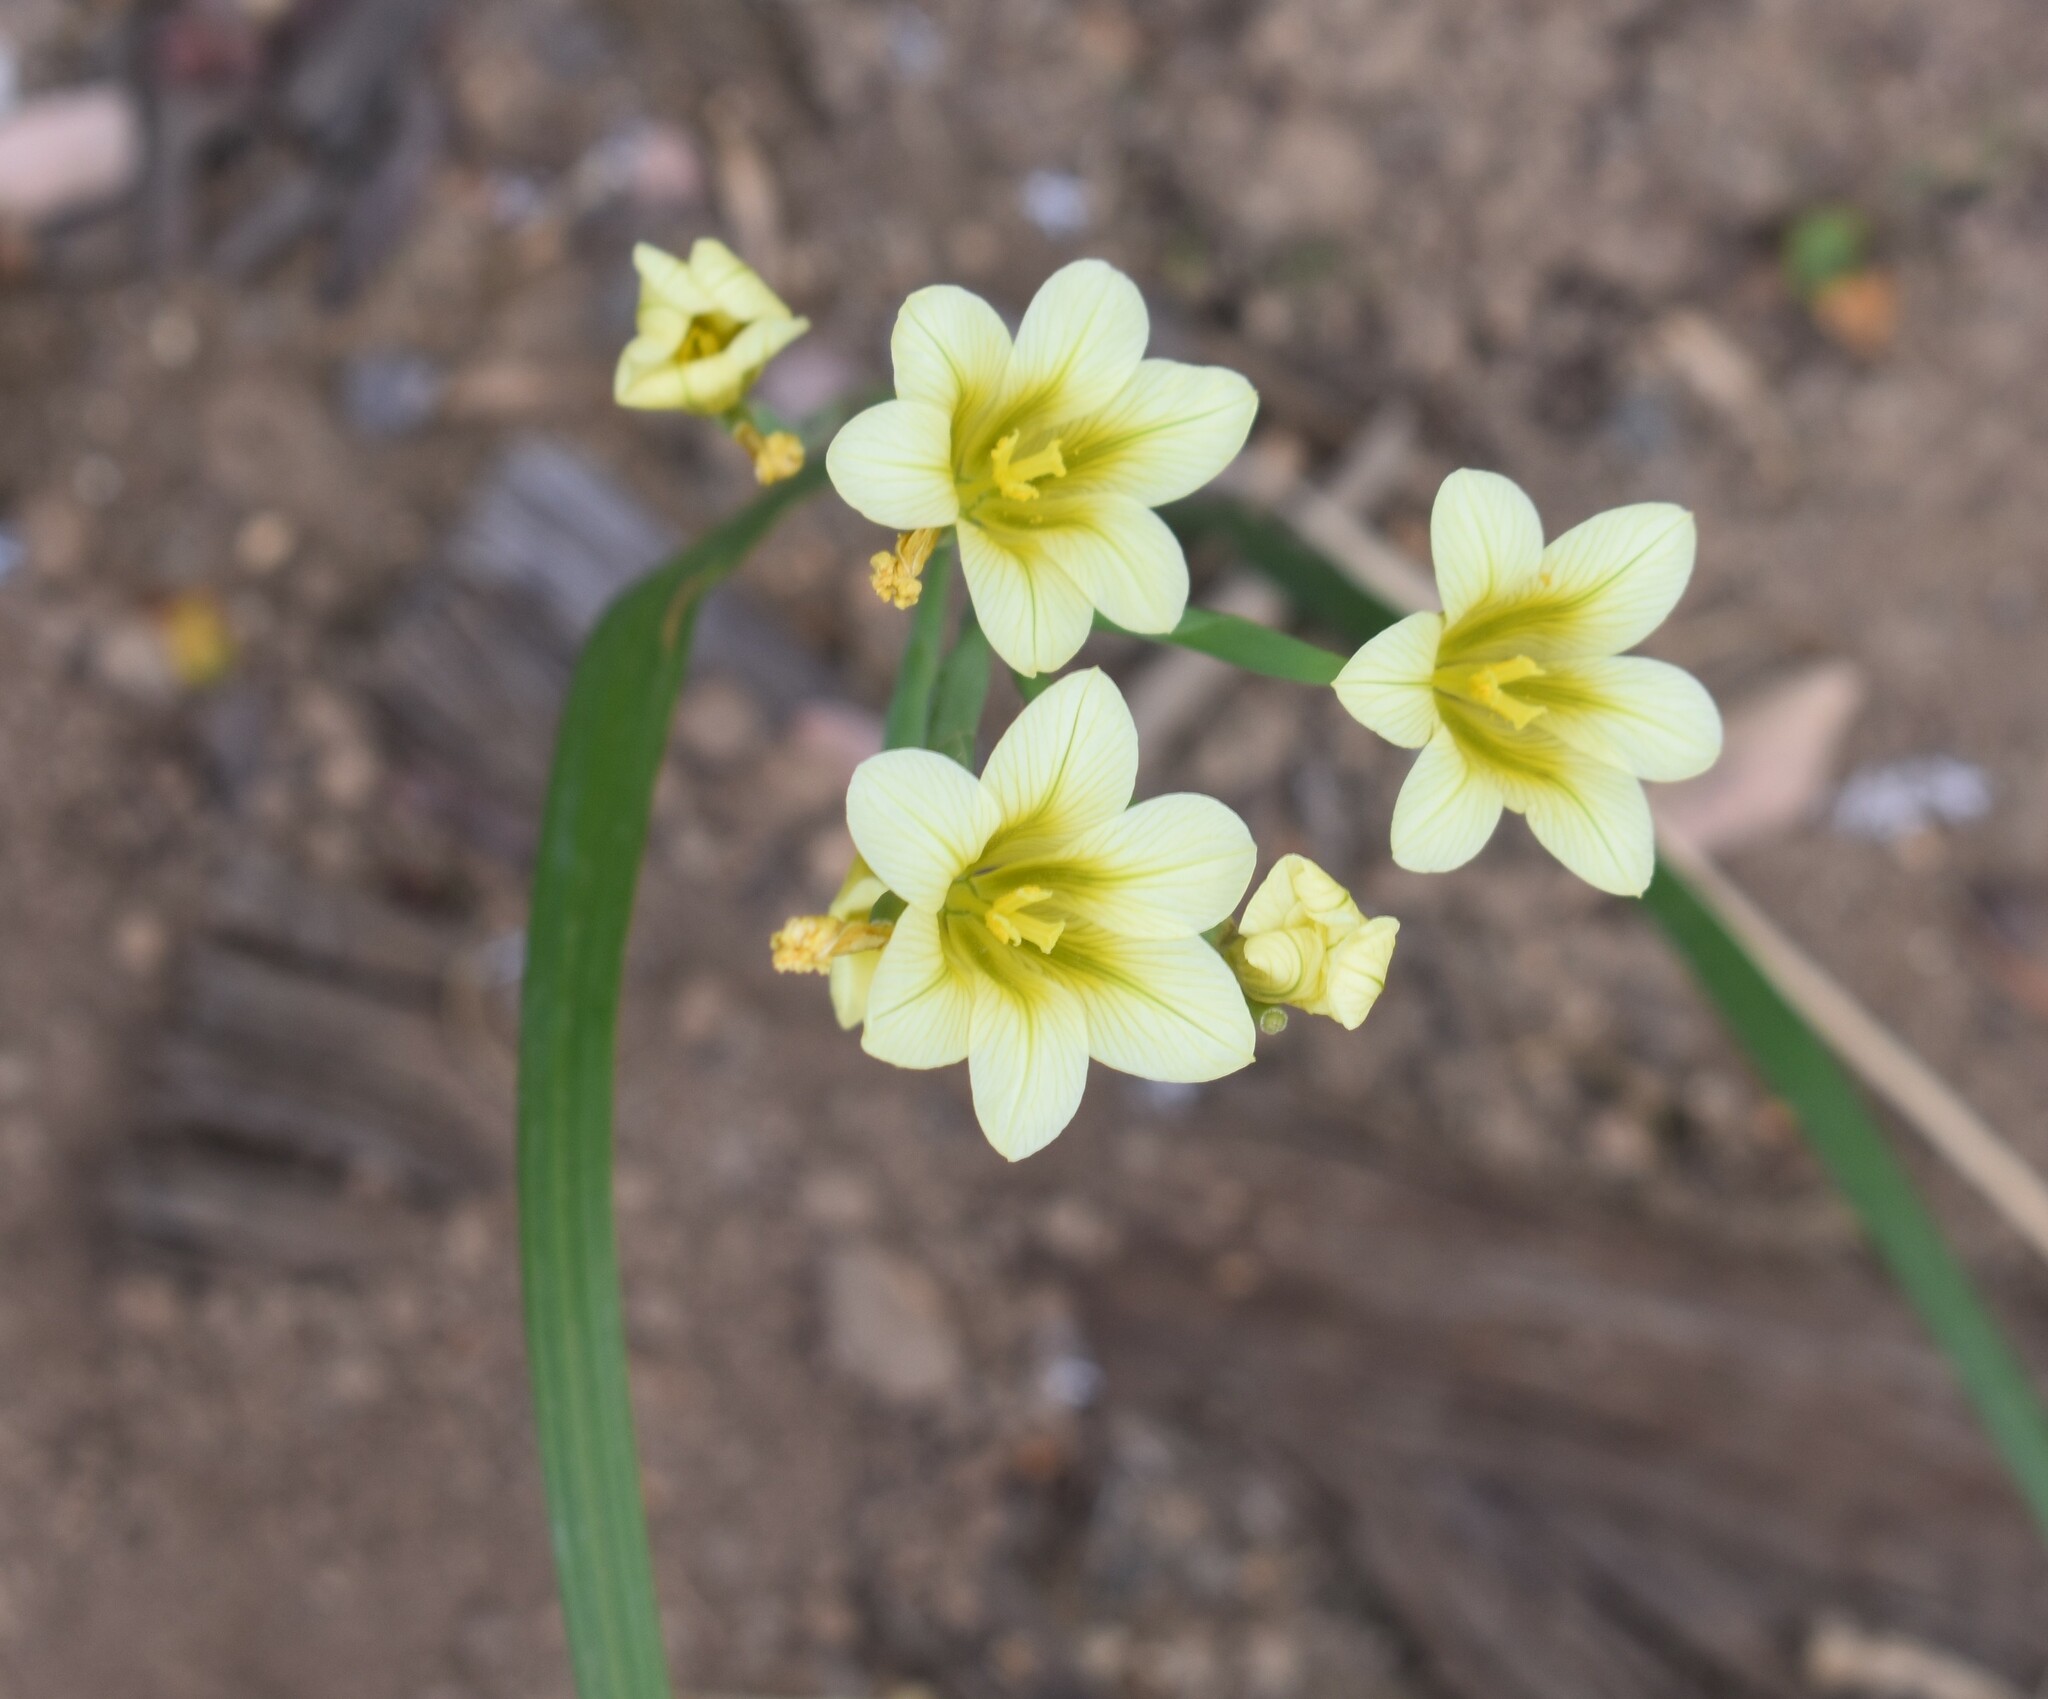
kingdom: Plantae
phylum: Tracheophyta
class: Liliopsida
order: Asparagales
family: Iridaceae
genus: Moraea
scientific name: Moraea ochroleuca
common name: Red tulp
